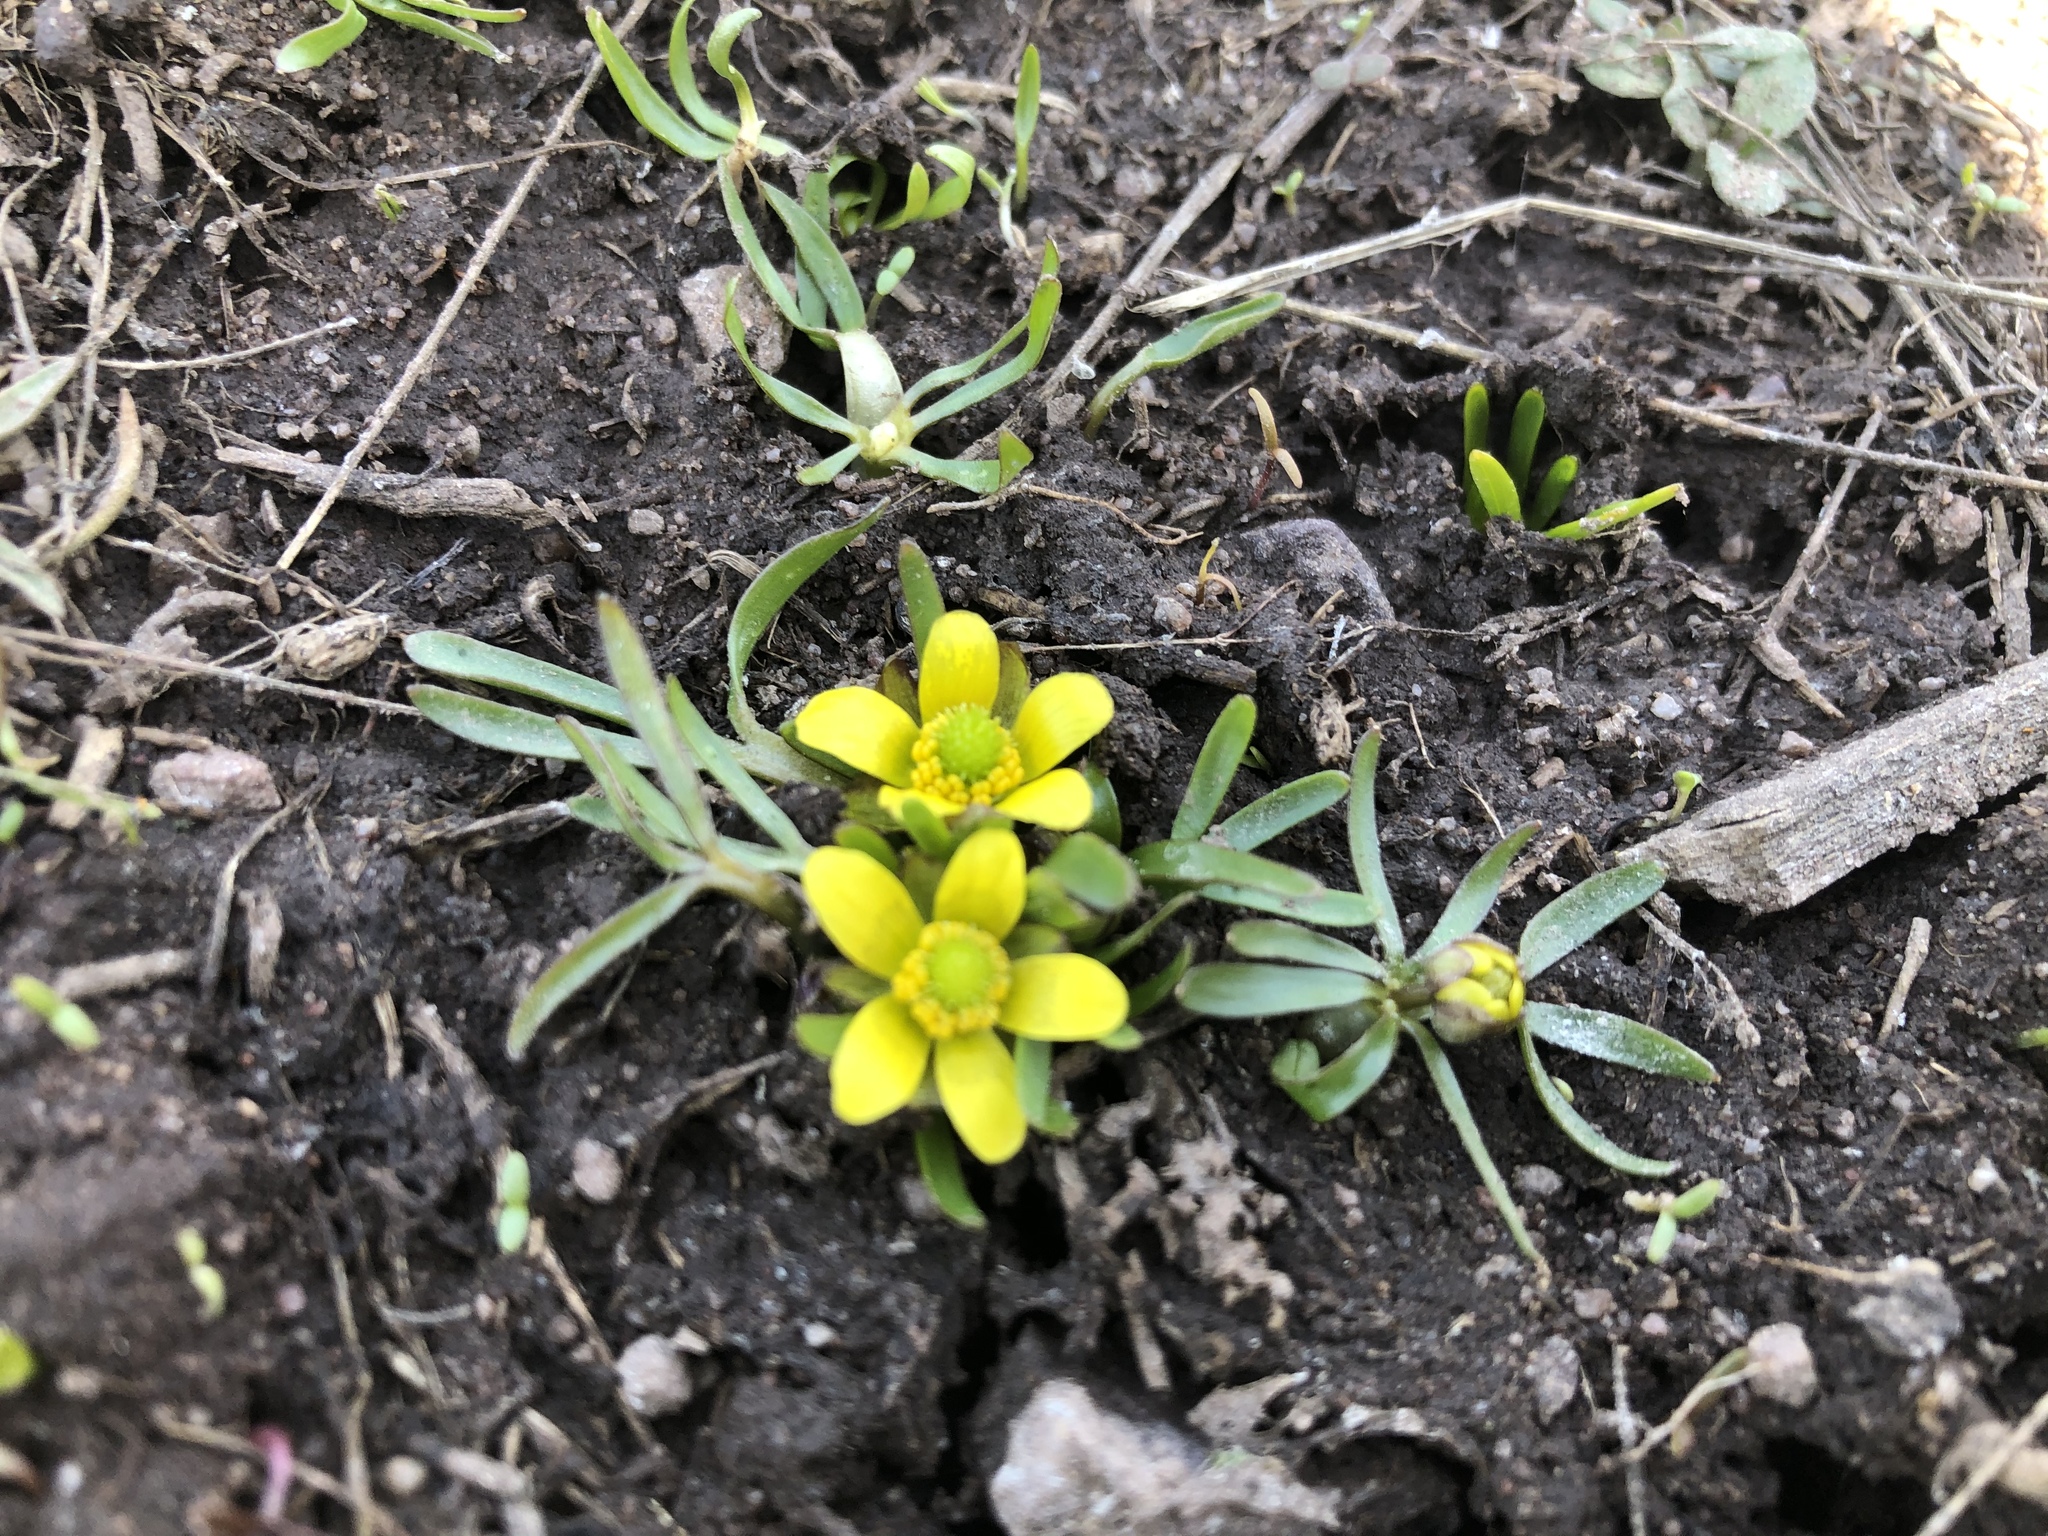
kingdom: Plantae
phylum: Tracheophyta
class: Magnoliopsida
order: Ranunculales
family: Ranunculaceae
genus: Ranunculus
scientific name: Ranunculus glaberrimus
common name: Sagebrush buttercup
